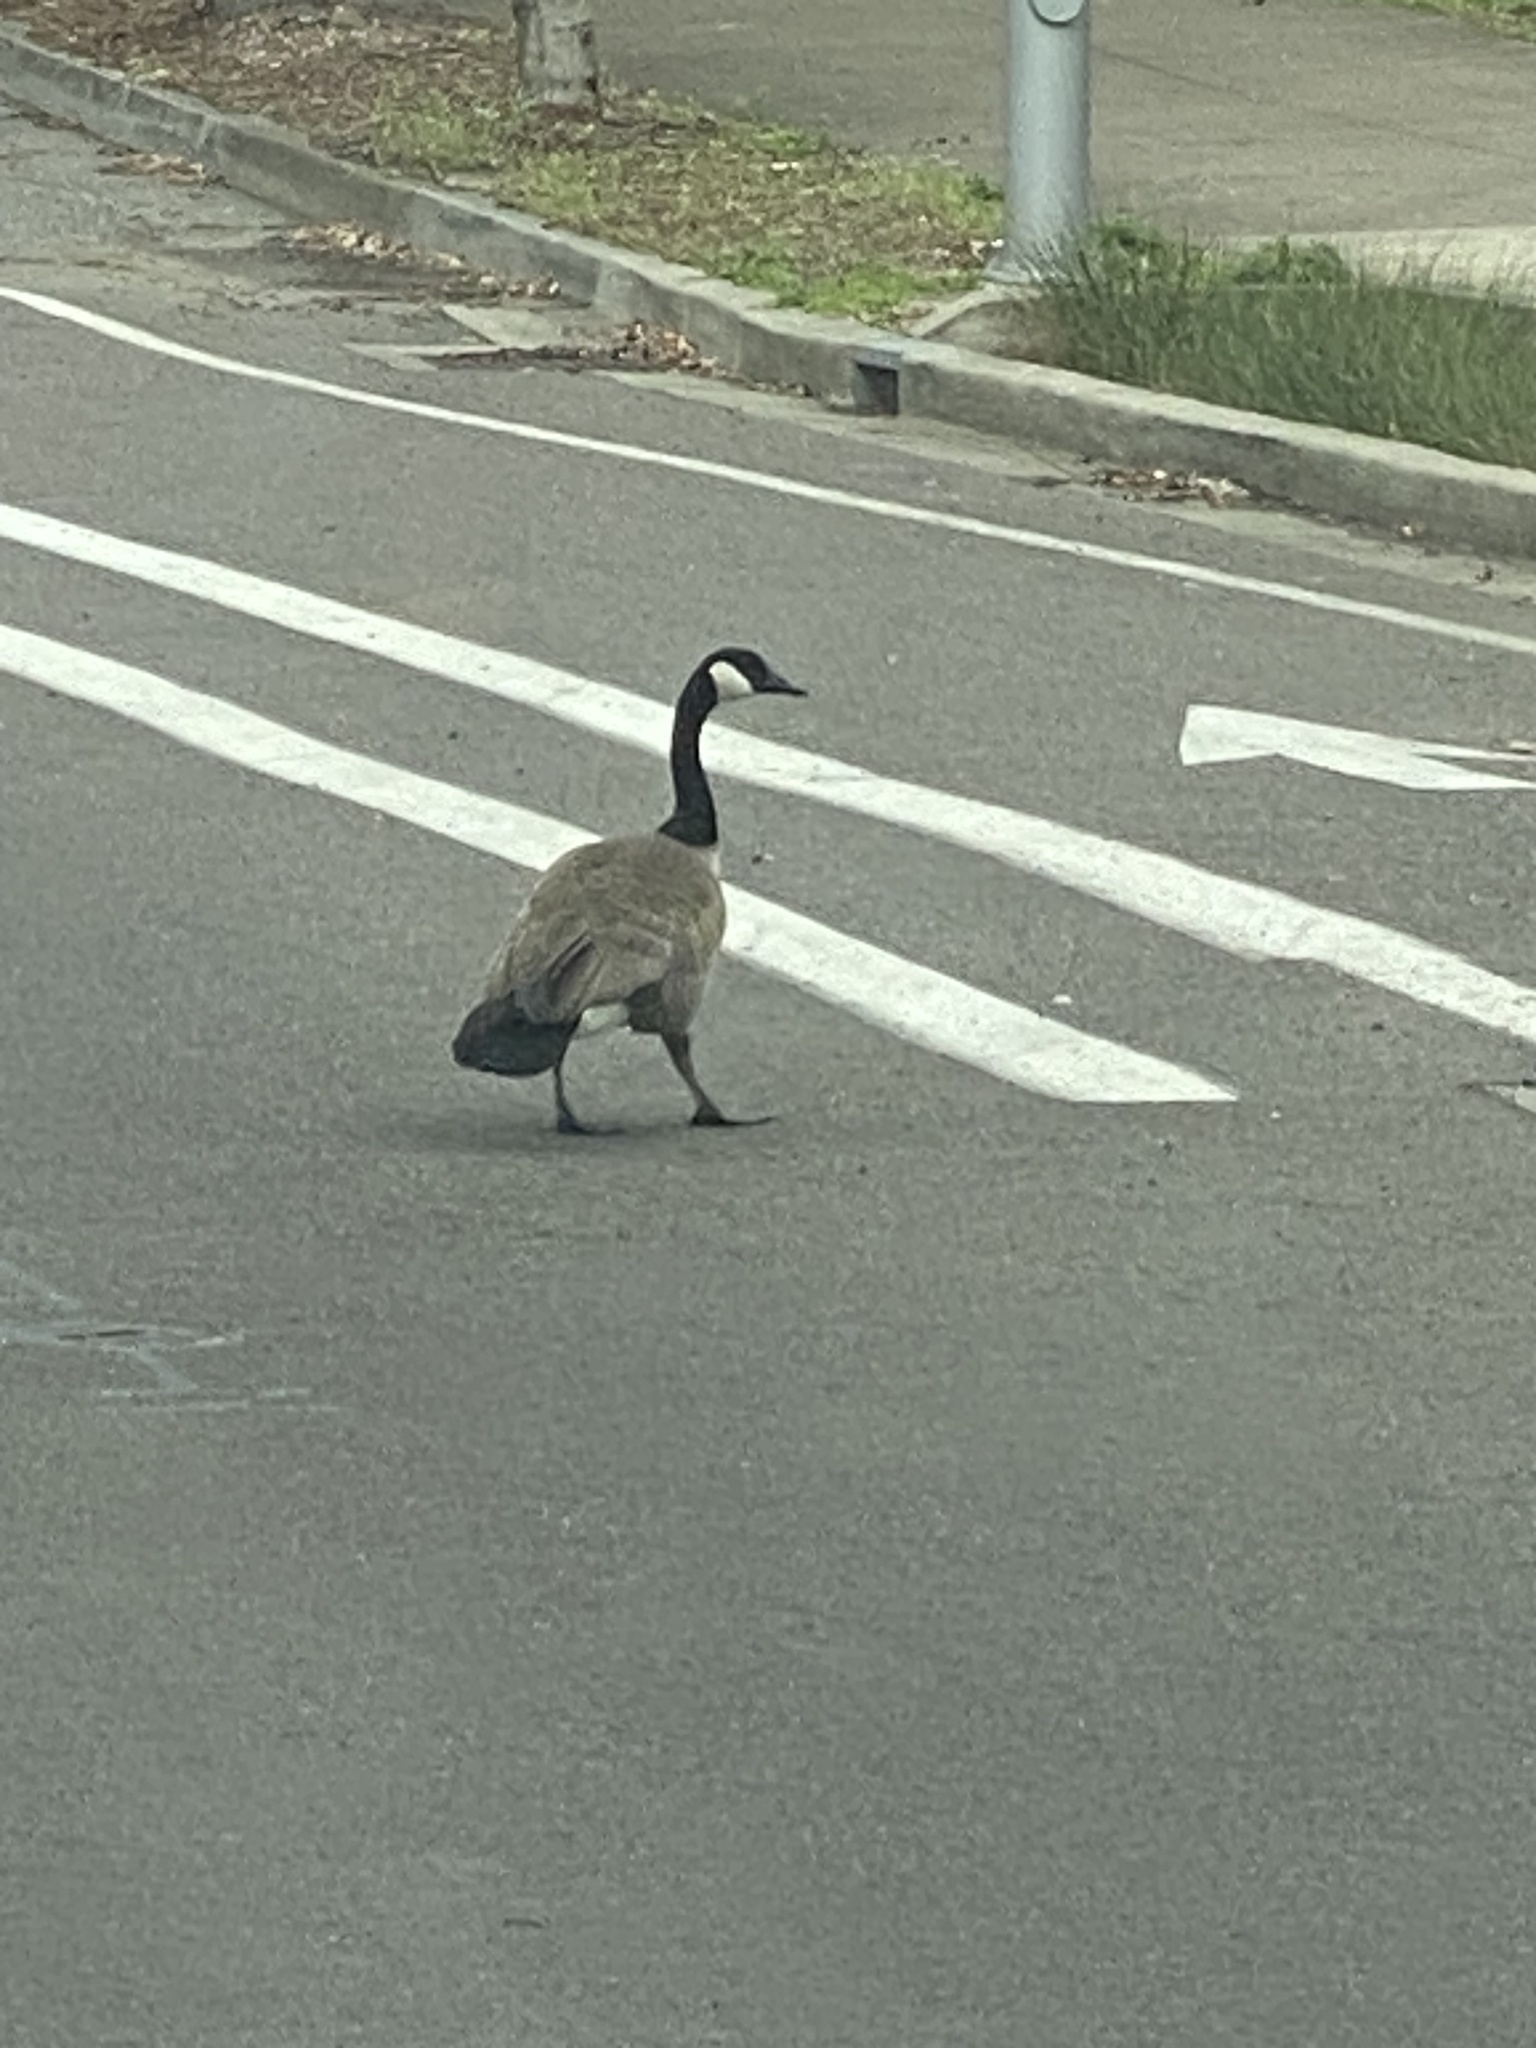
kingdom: Animalia
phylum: Chordata
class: Aves
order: Anseriformes
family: Anatidae
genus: Branta
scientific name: Branta canadensis
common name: Canada goose
